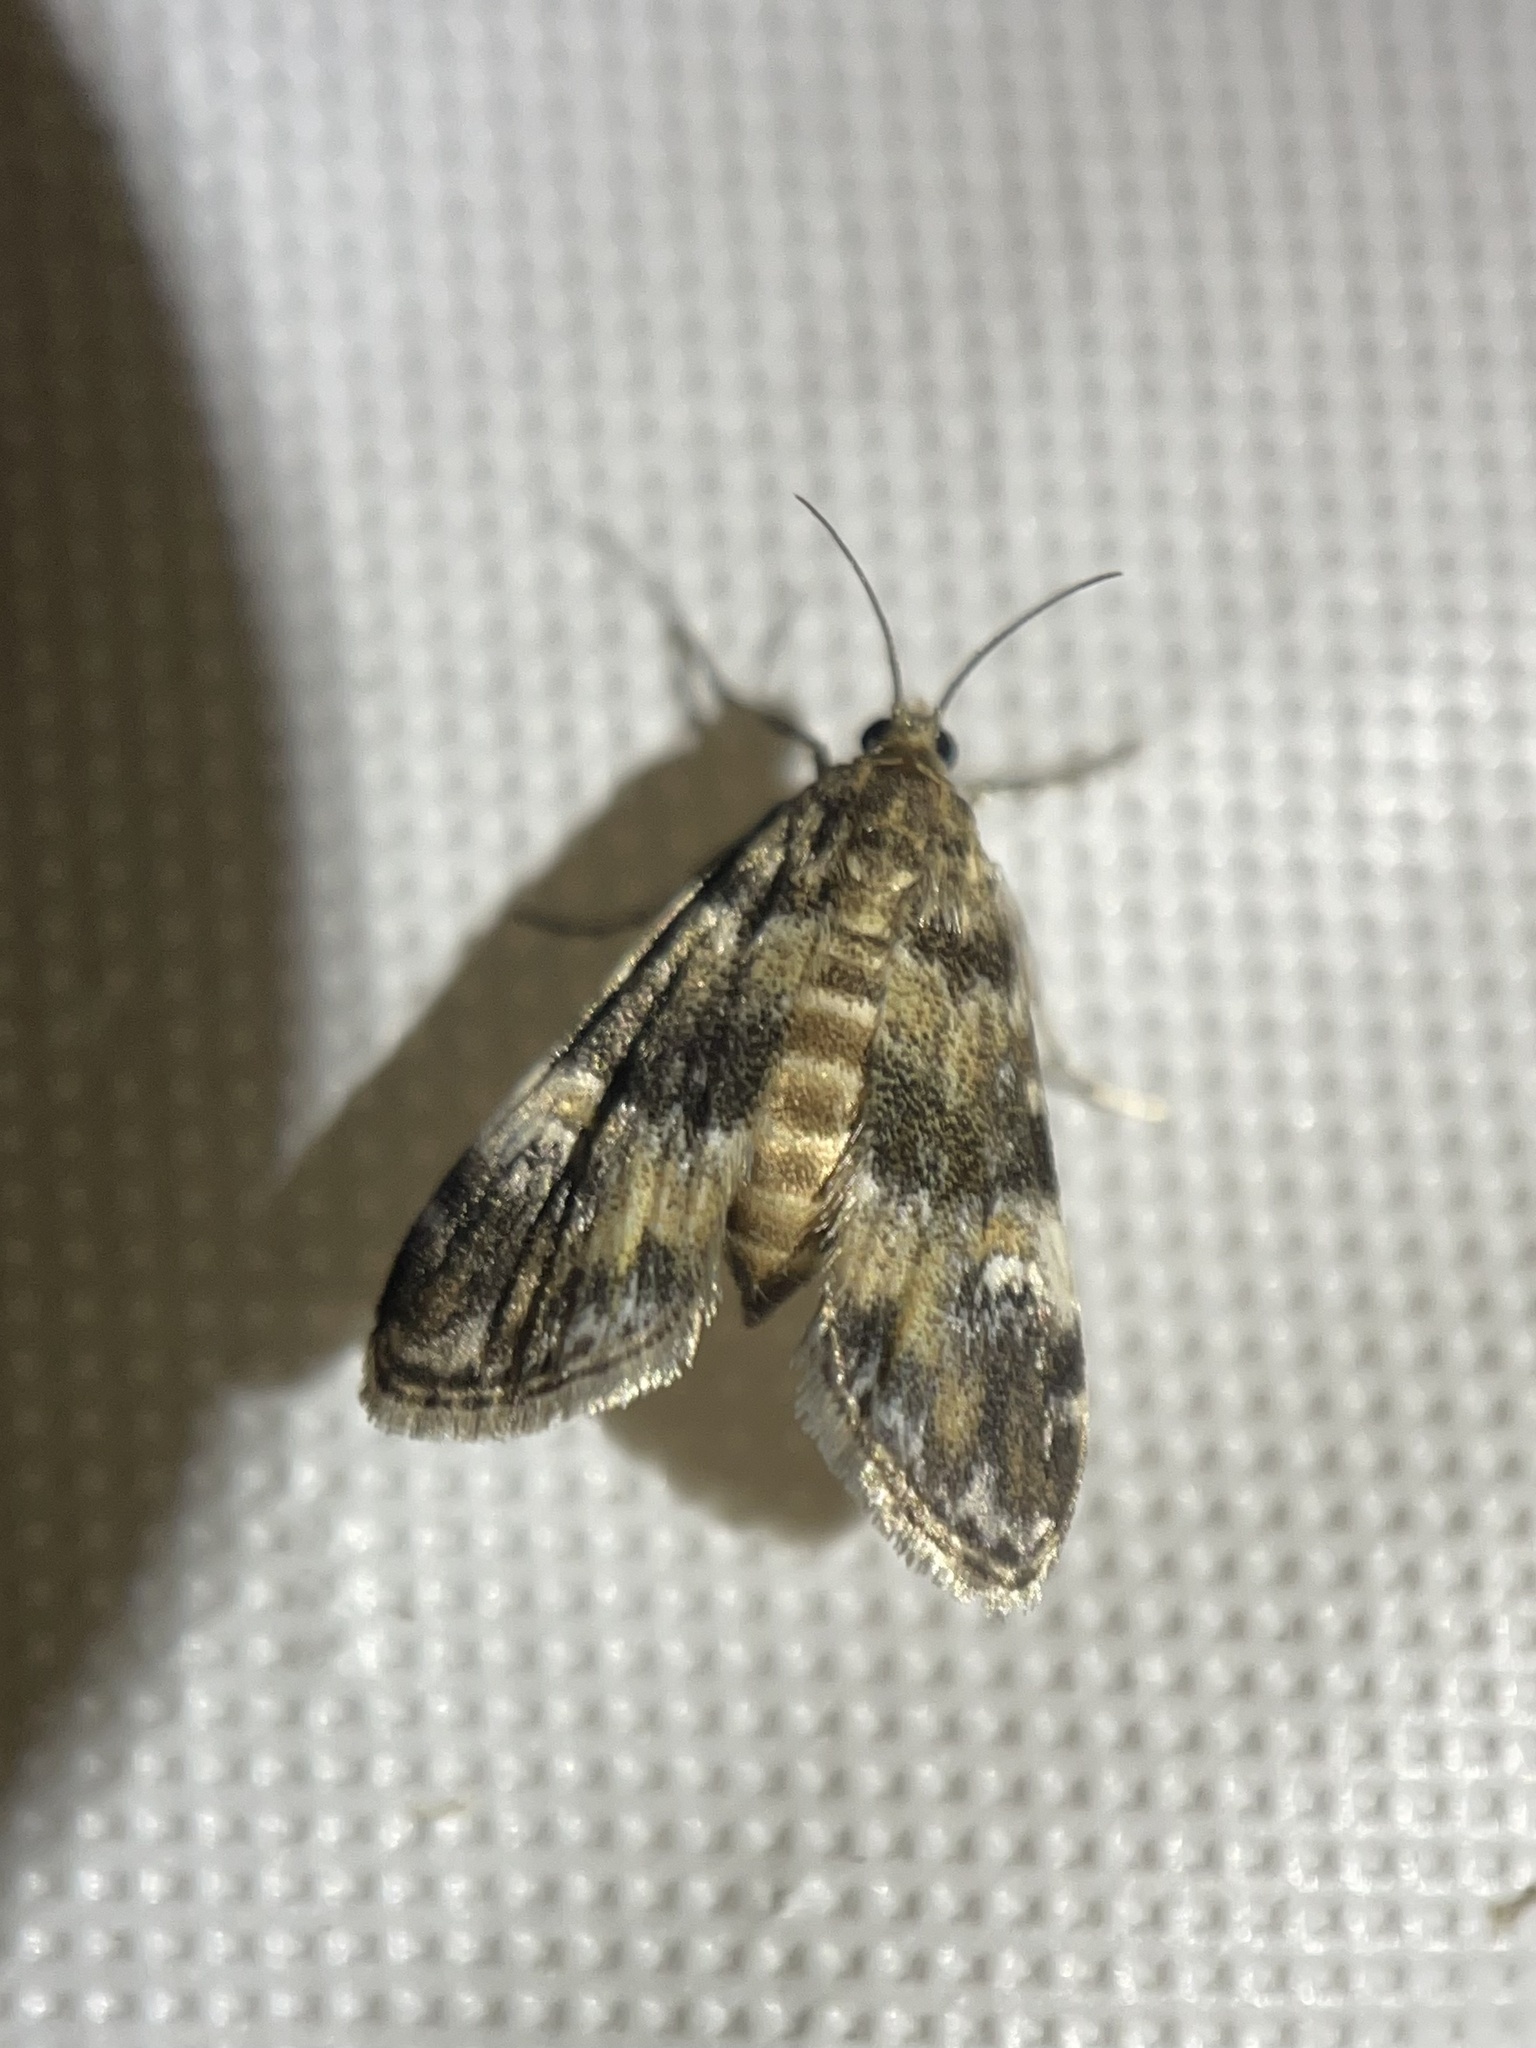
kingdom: Animalia
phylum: Arthropoda
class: Insecta
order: Lepidoptera
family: Crambidae
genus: Elophila
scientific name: Elophila obliteralis
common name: Waterlily leafcutter moth
